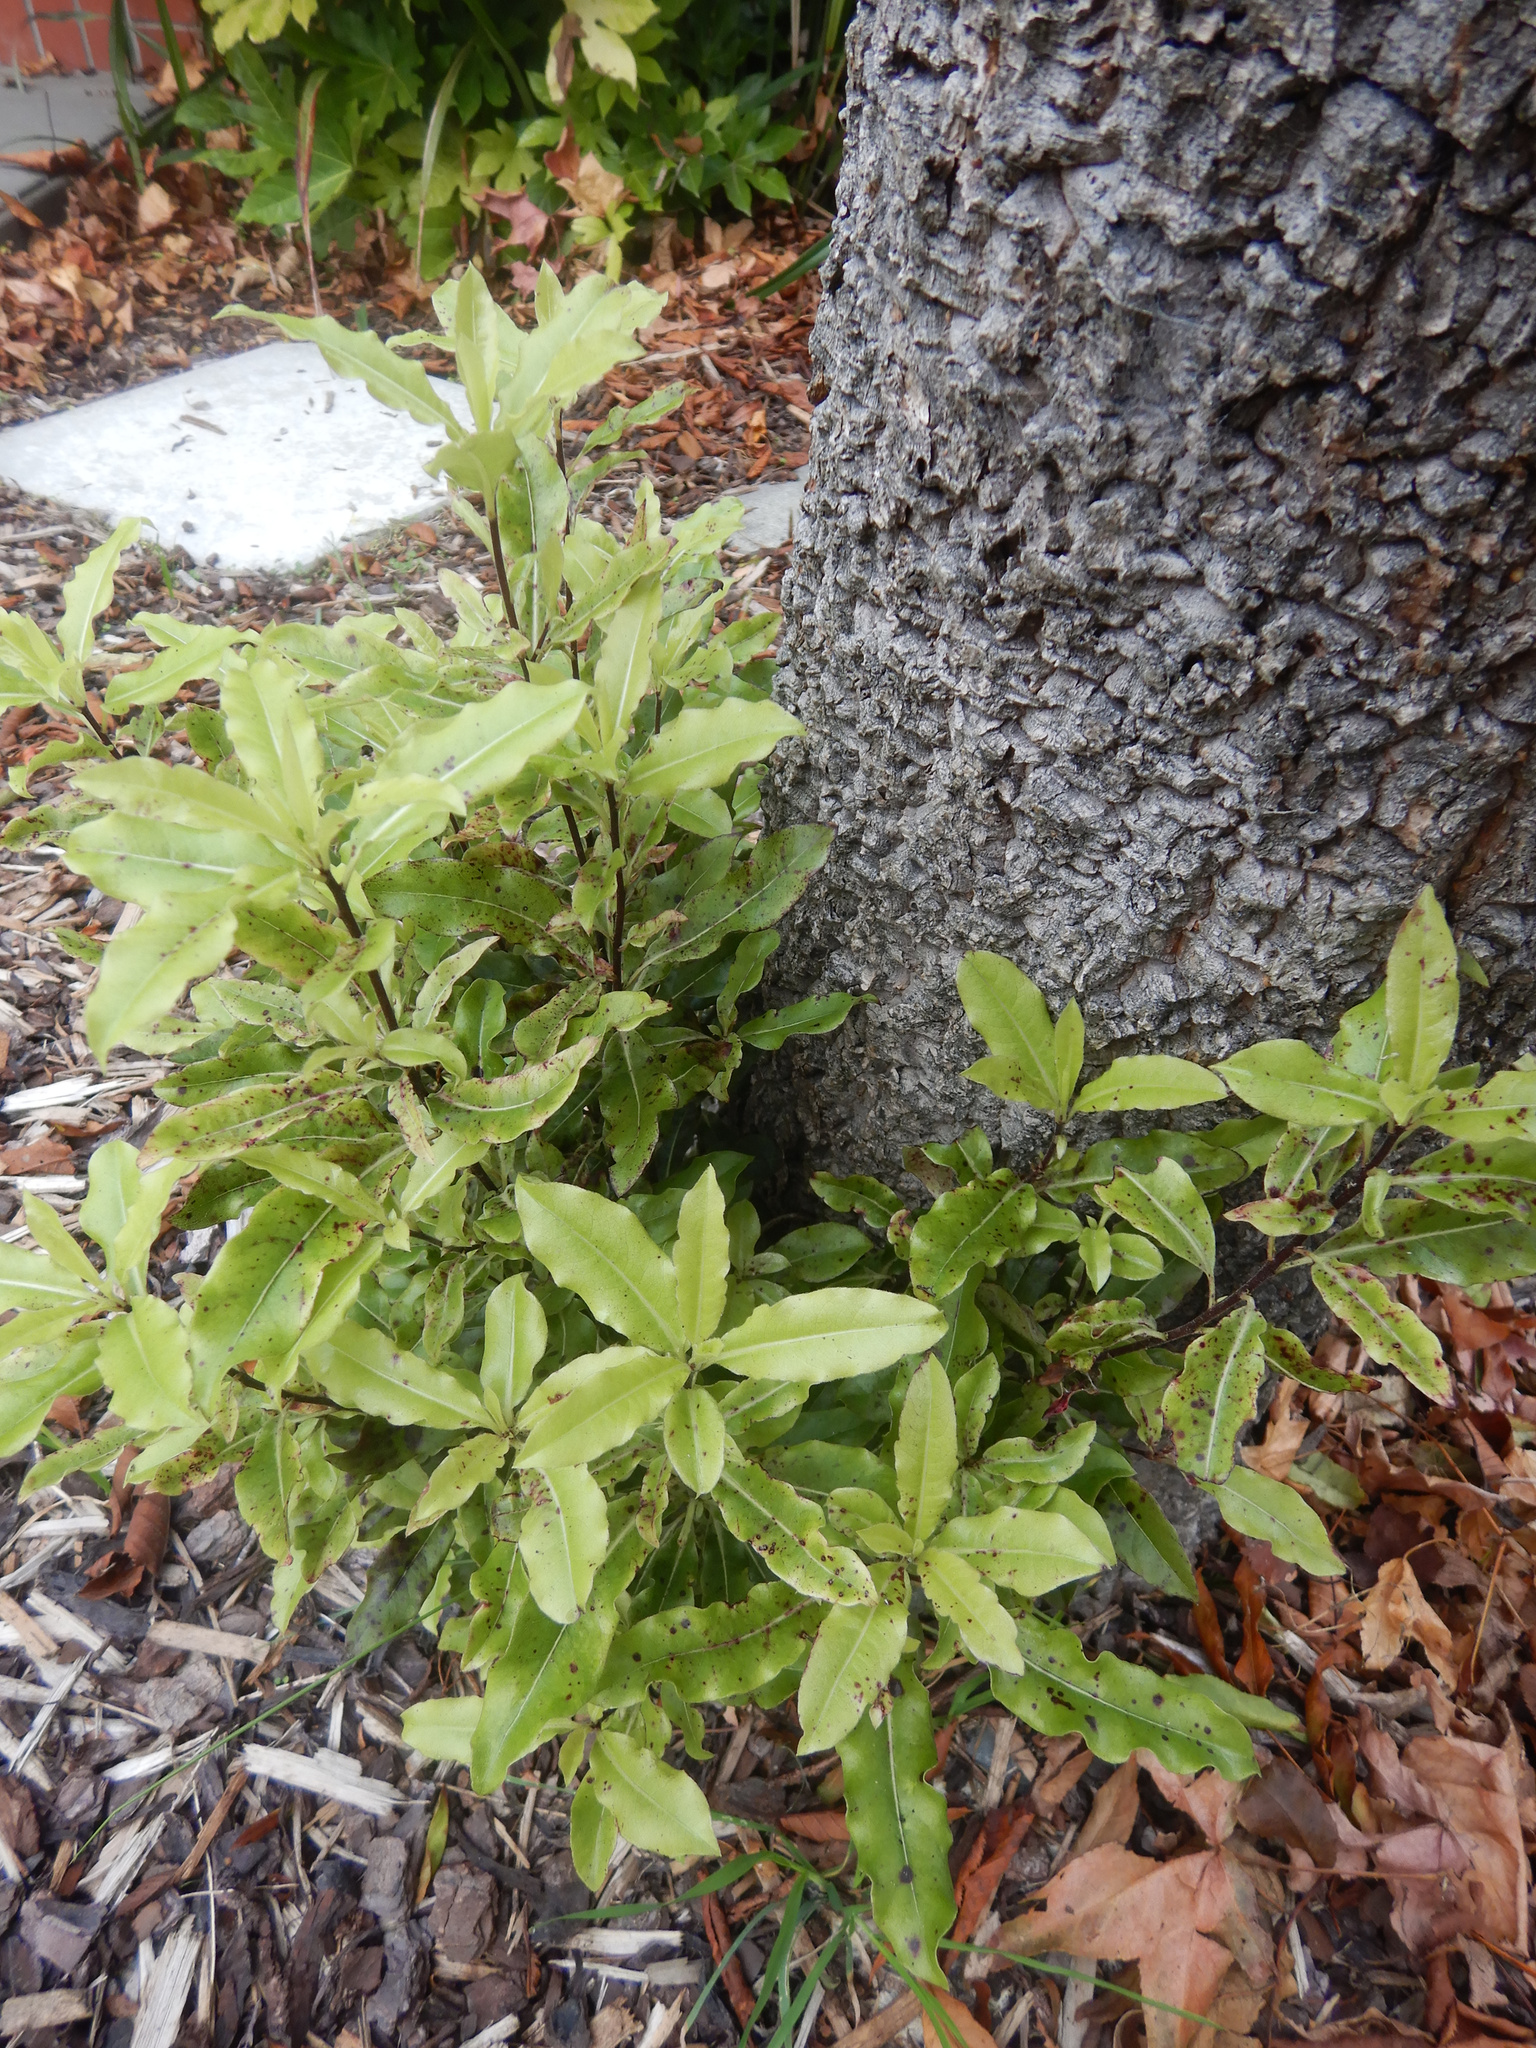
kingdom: Plantae
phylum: Tracheophyta
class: Magnoliopsida
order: Apiales
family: Pittosporaceae
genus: Pittosporum
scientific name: Pittosporum eugenioides
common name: Lemonwood
